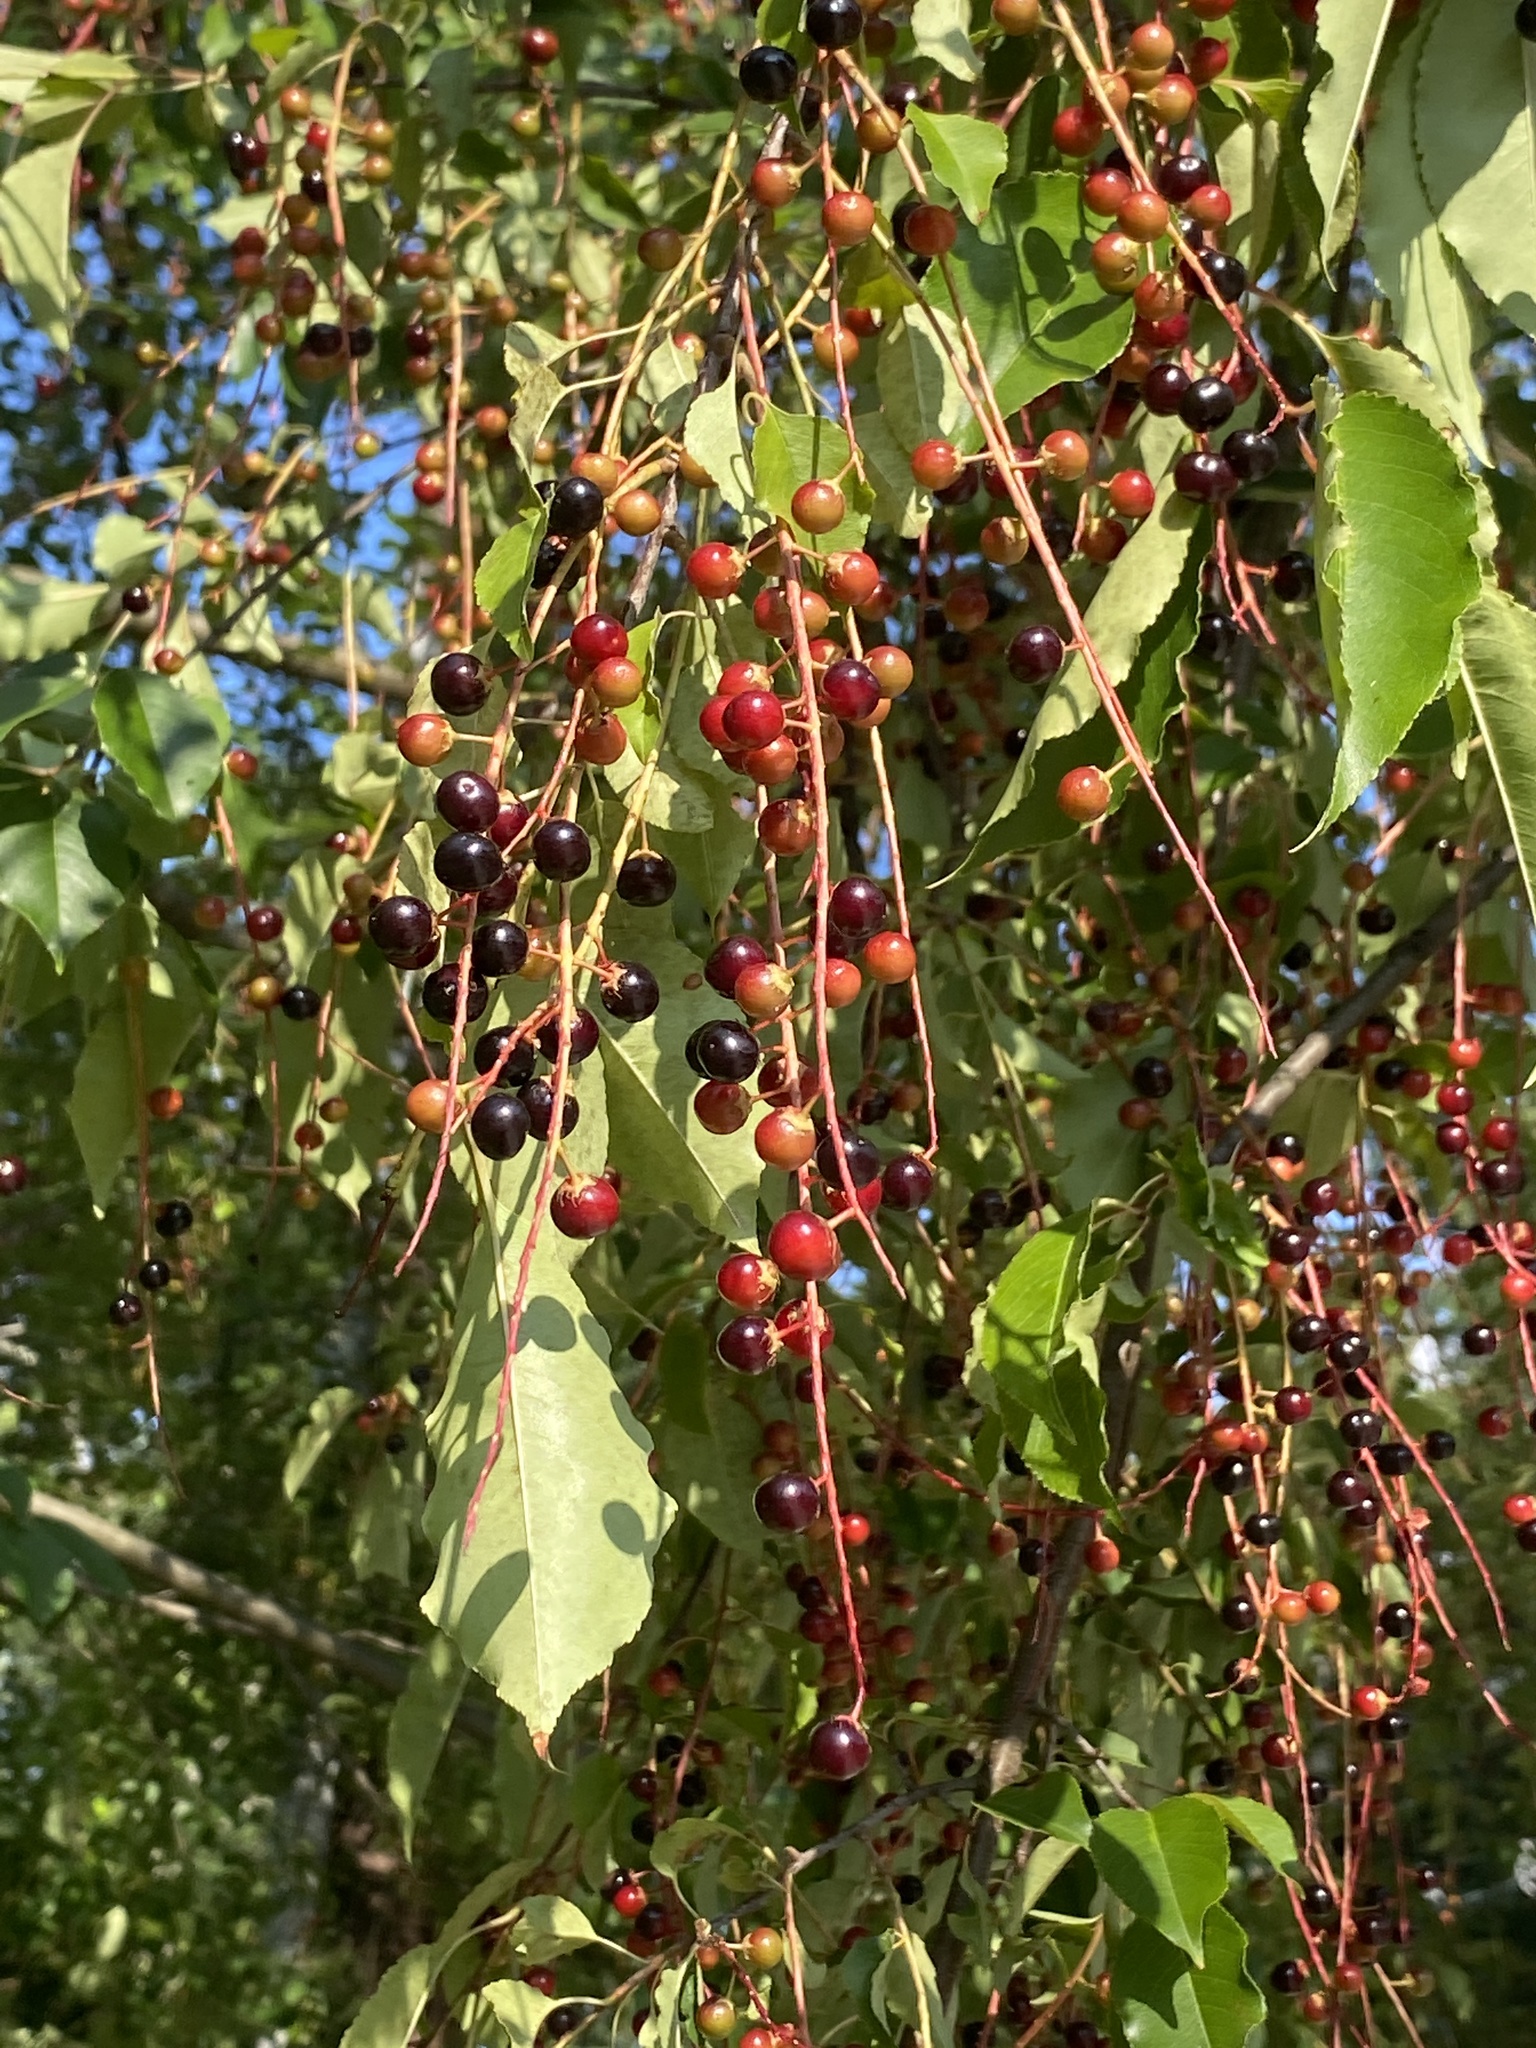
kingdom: Plantae
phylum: Tracheophyta
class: Magnoliopsida
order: Rosales
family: Rosaceae
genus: Prunus
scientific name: Prunus serotina
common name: Black cherry
